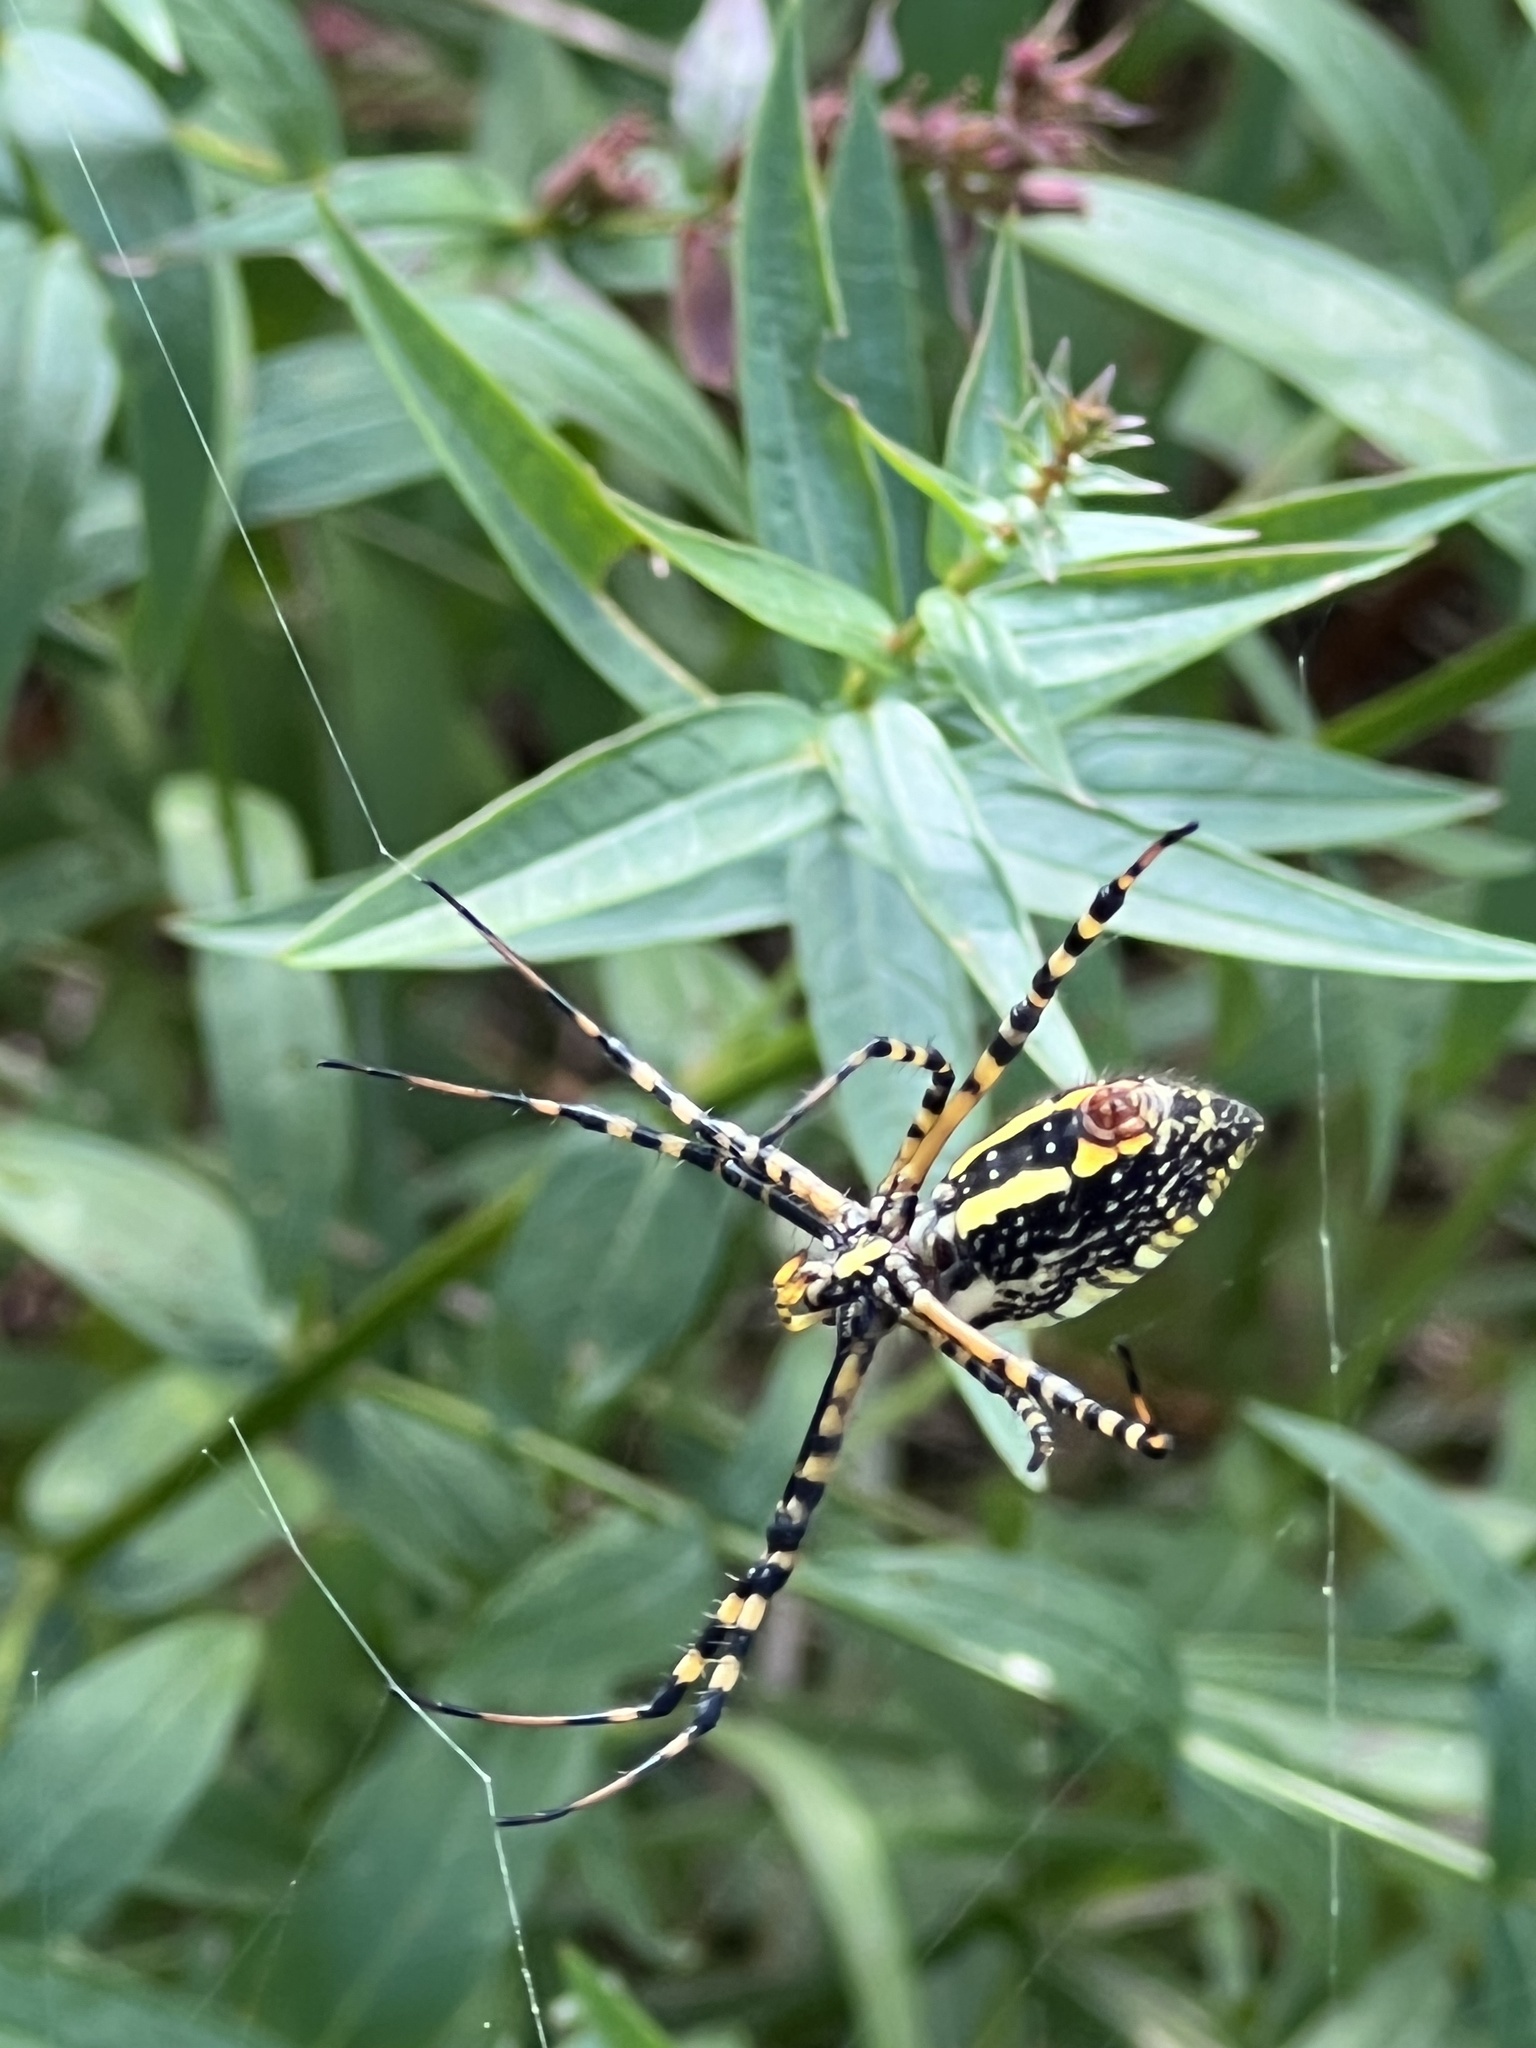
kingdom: Animalia
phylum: Arthropoda
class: Arachnida
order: Araneae
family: Araneidae
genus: Argiope
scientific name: Argiope trifasciata
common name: Banded garden spider
